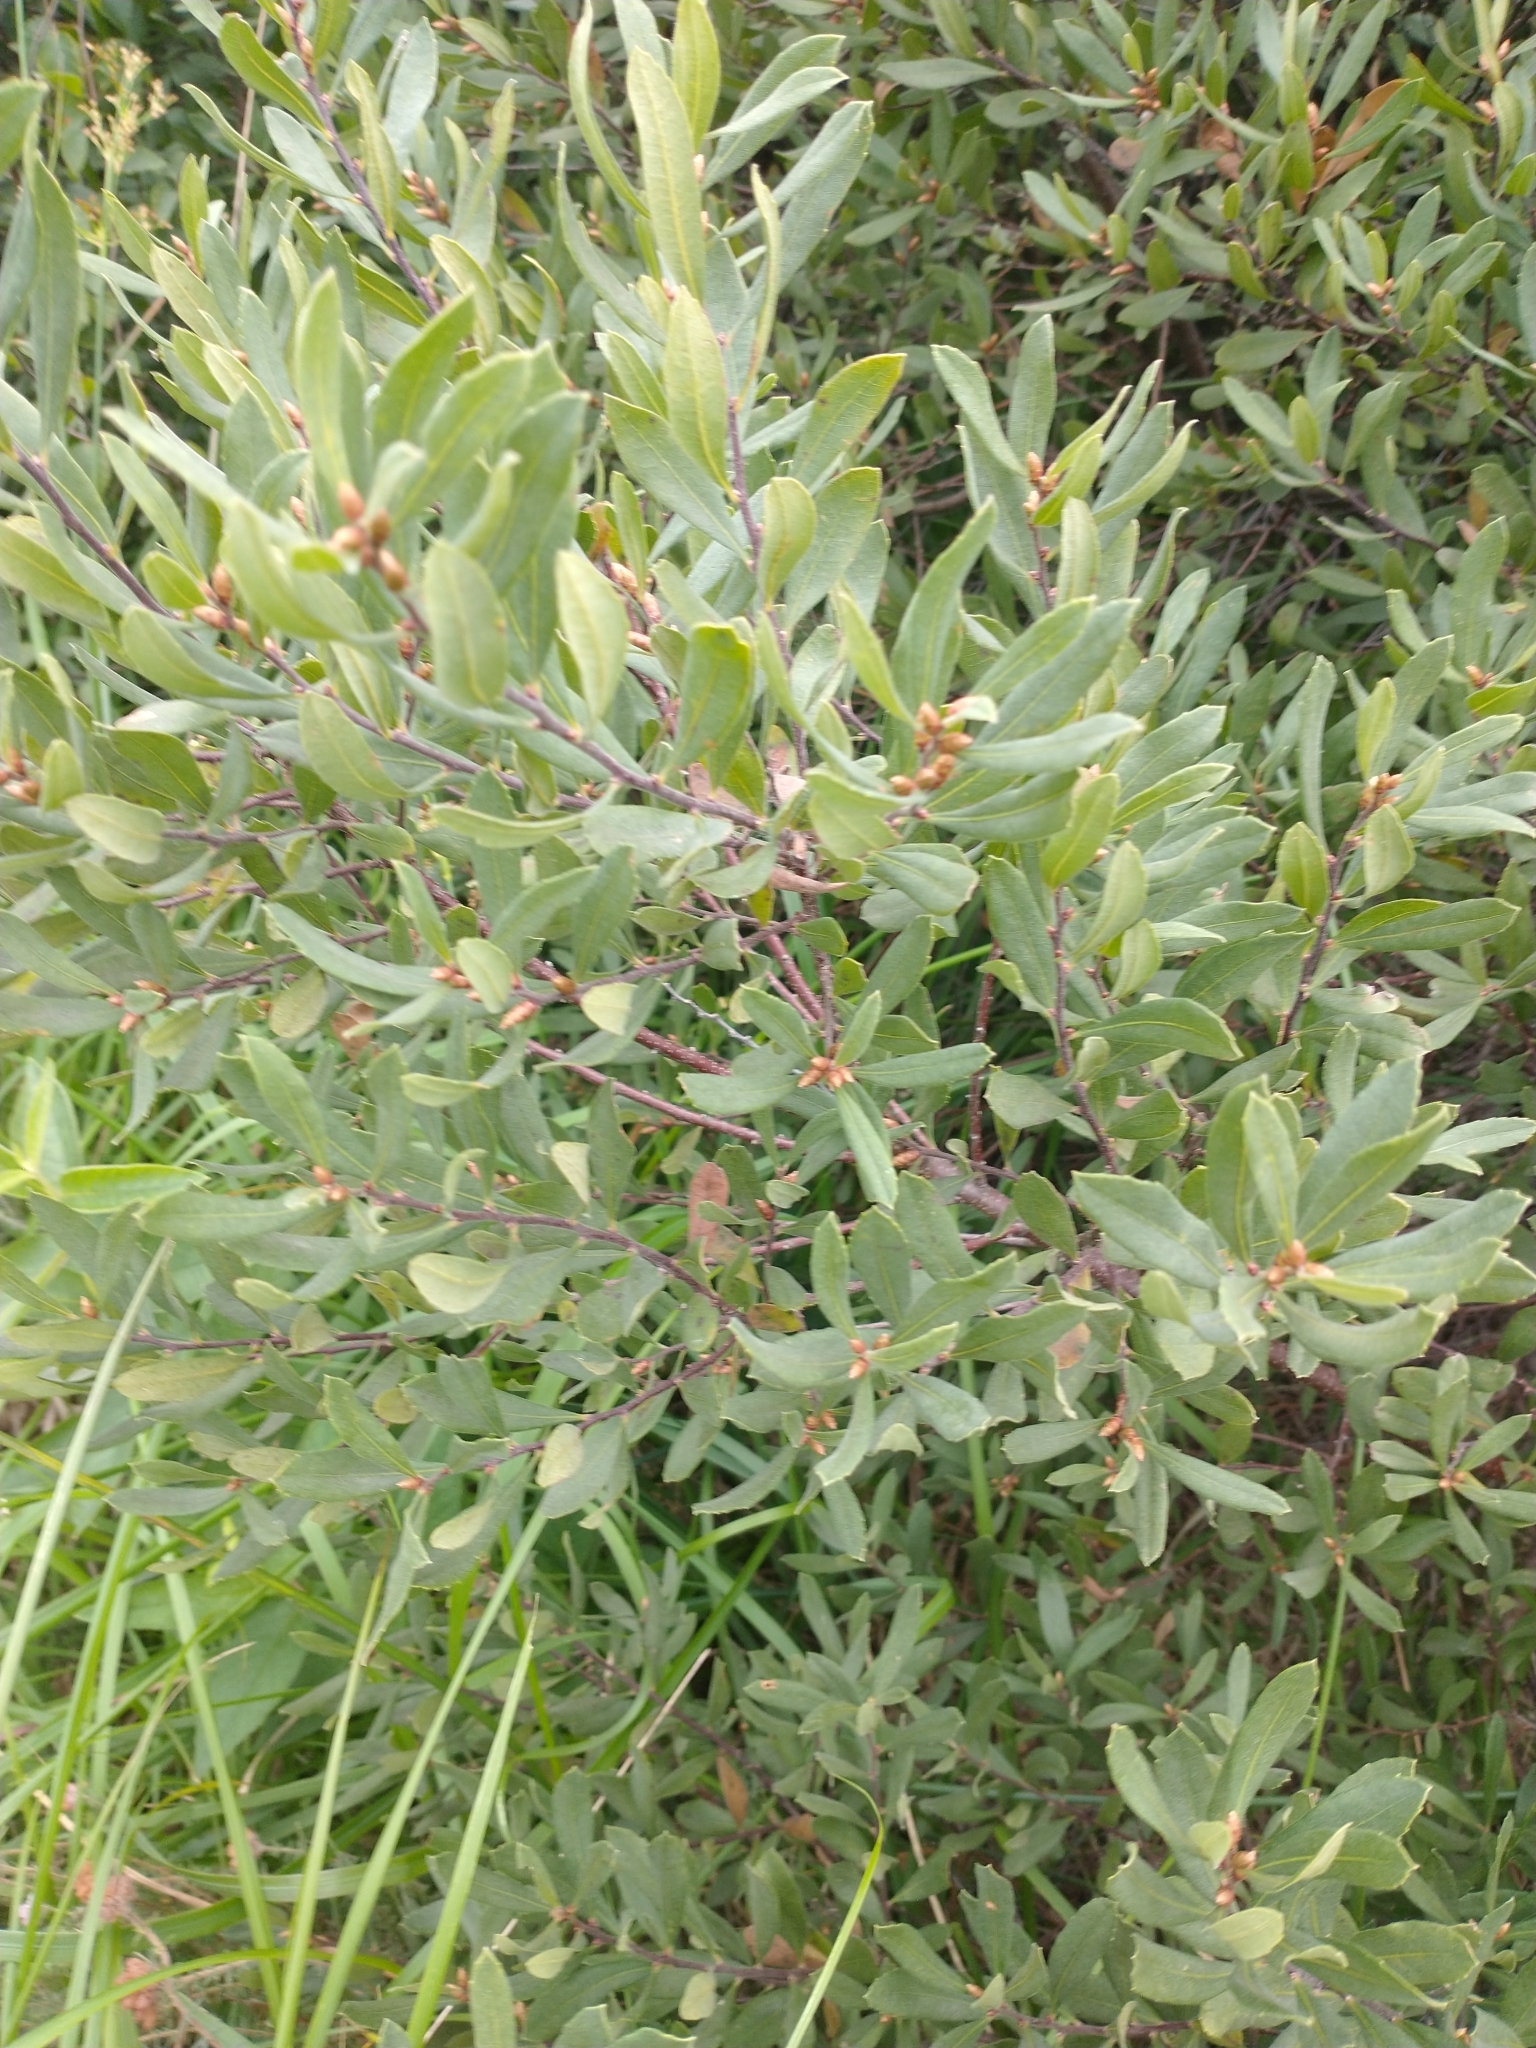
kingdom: Plantae
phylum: Tracheophyta
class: Magnoliopsida
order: Fagales
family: Myricaceae
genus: Myrica
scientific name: Myrica gale
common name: Sweet gale
